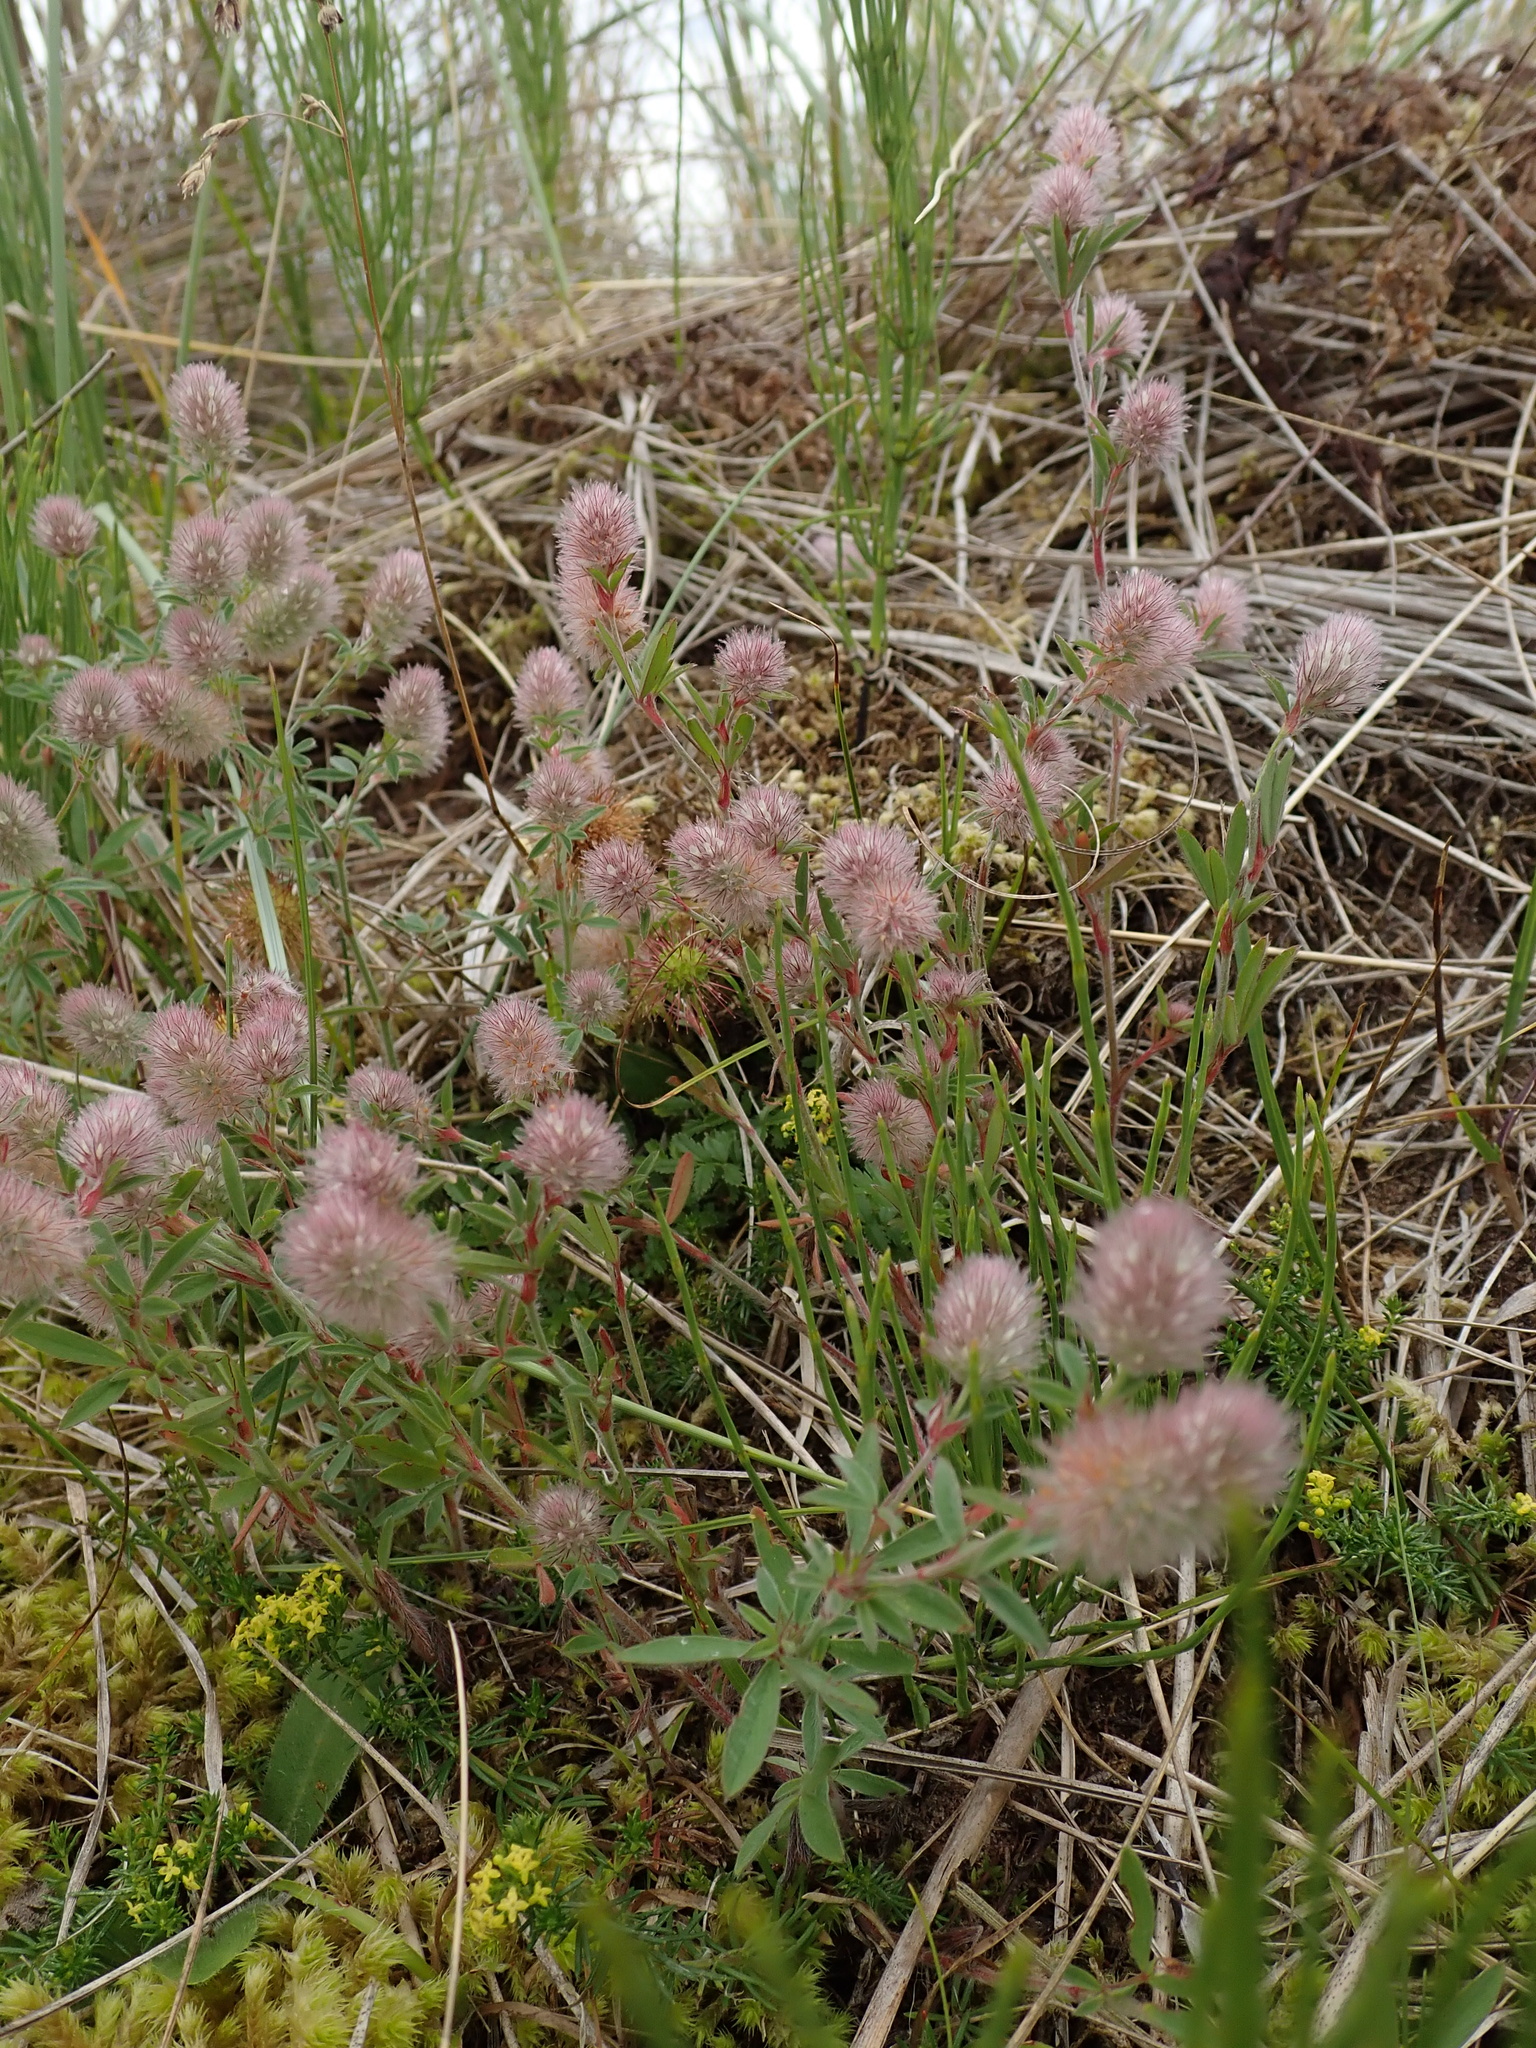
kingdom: Plantae
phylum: Tracheophyta
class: Magnoliopsida
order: Fabales
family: Fabaceae
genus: Trifolium
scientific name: Trifolium arvense
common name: Hare's-foot clover
